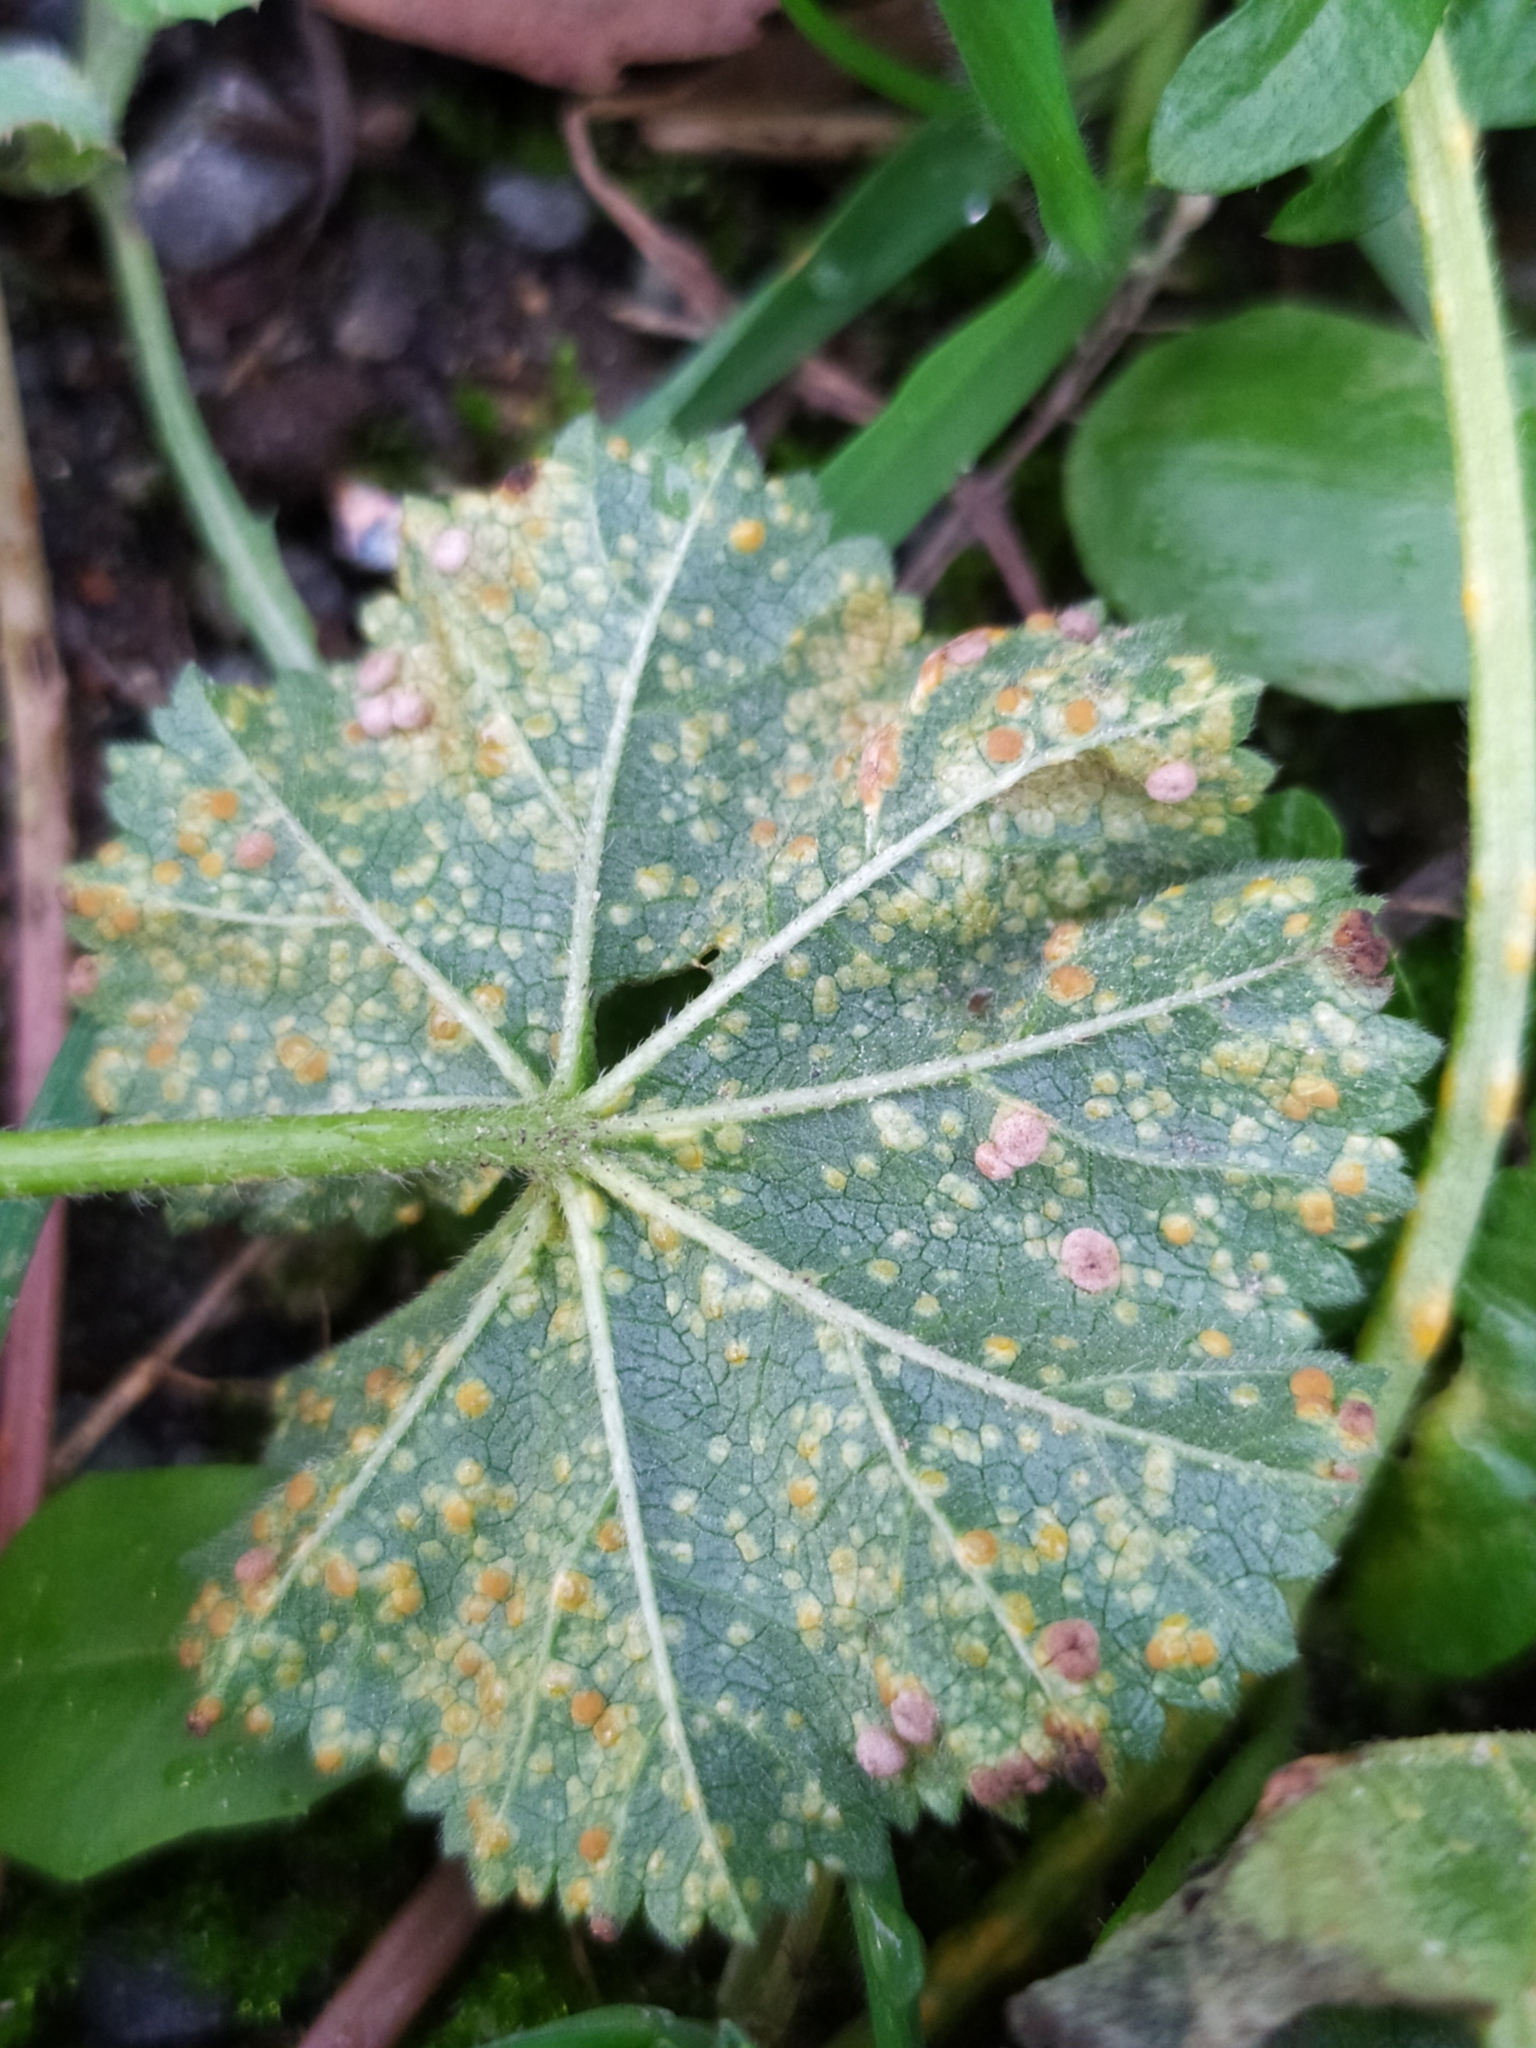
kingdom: Fungi
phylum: Basidiomycota
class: Pucciniomycetes
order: Pucciniales
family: Pucciniaceae
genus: Puccinia
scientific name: Puccinia malvacearum
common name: Hollyhock rust
